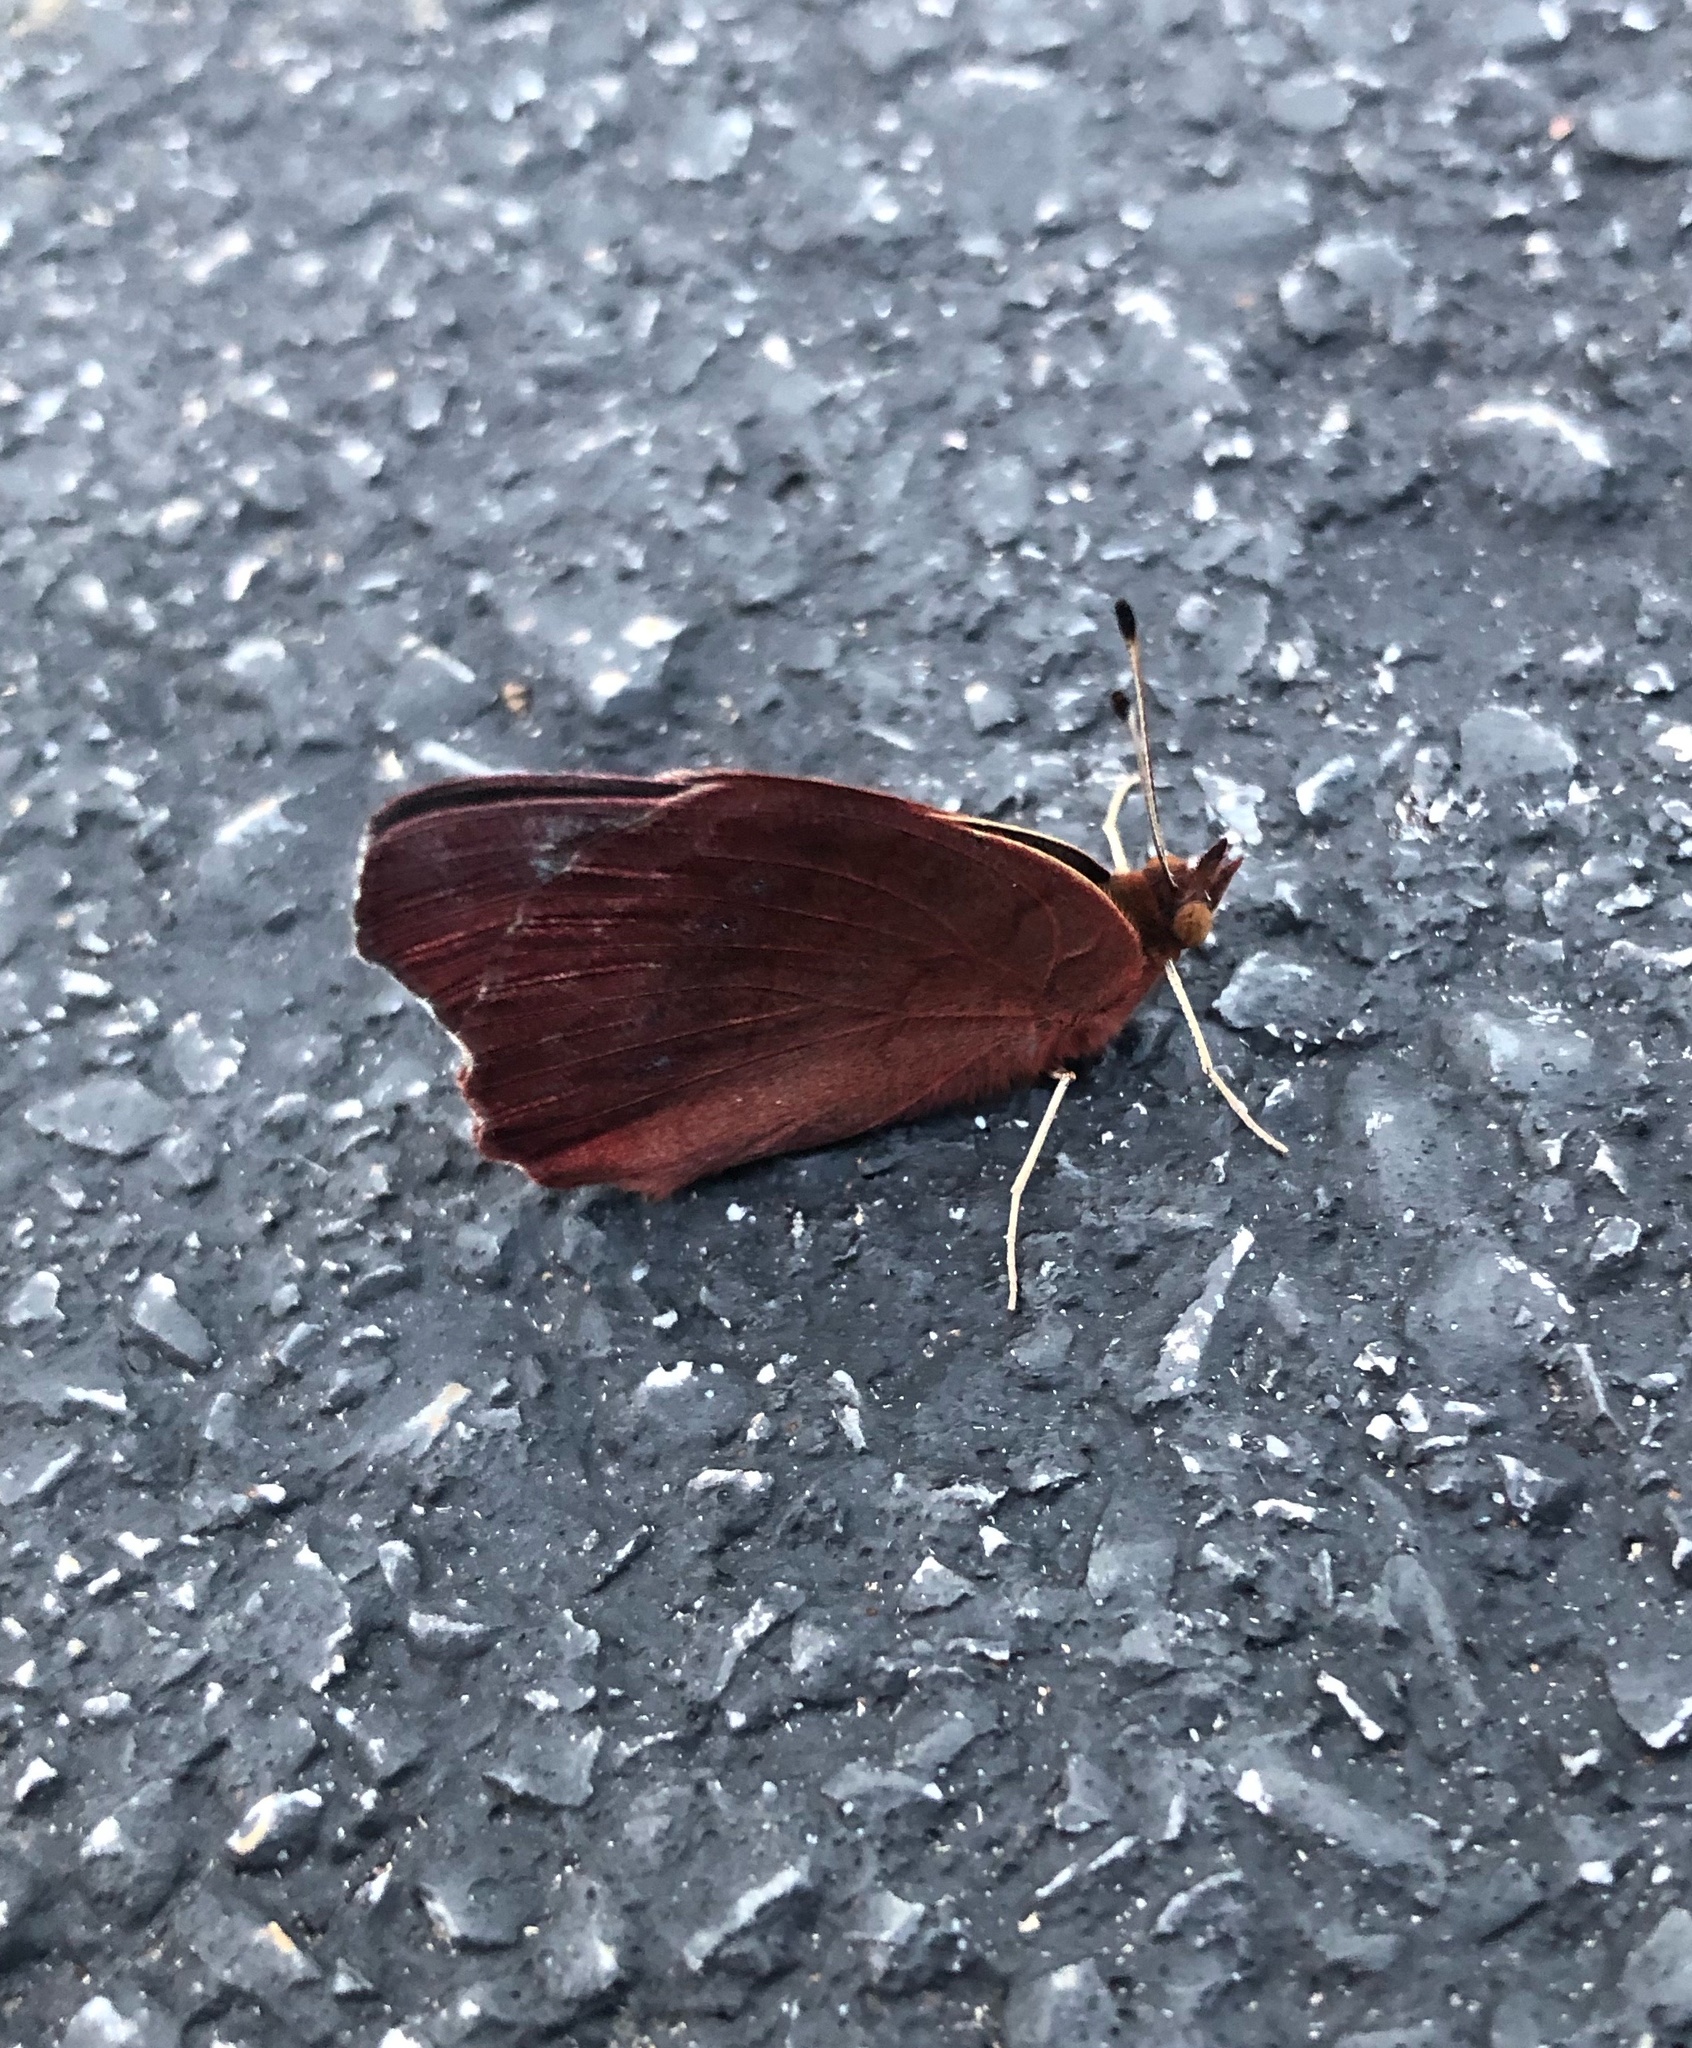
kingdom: Animalia
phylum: Arthropoda
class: Insecta
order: Lepidoptera
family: Nymphalidae
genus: Junonia
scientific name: Junonia coenia
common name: Common buckeye
